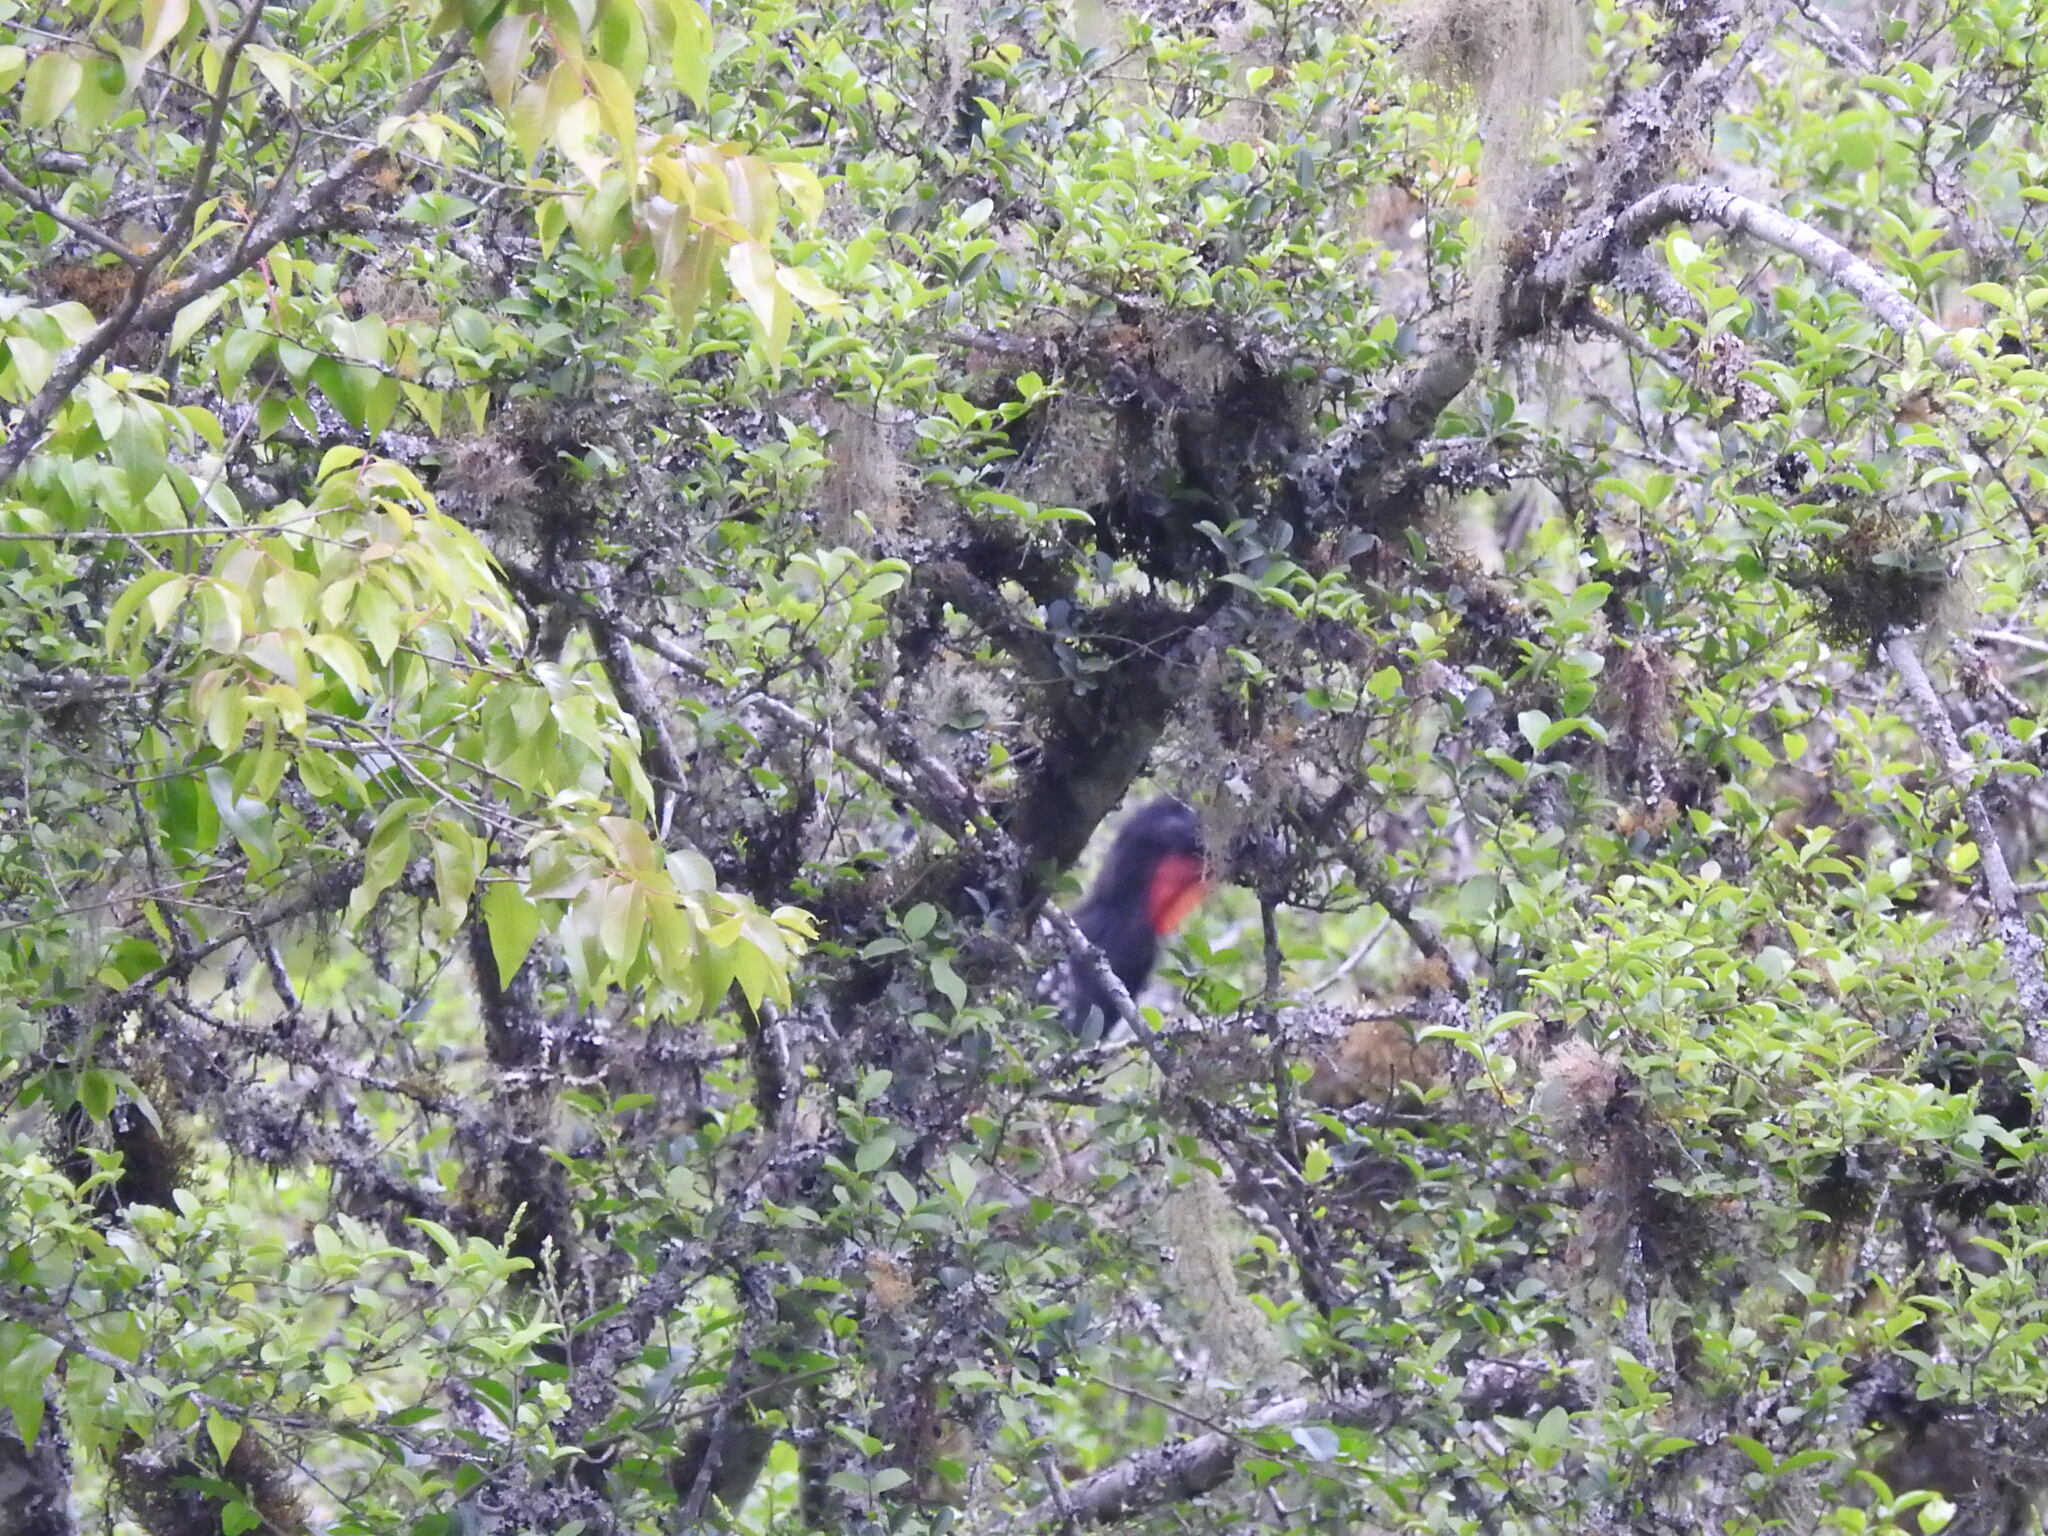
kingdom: Animalia
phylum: Chordata
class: Aves
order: Galliformes
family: Cracidae
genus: Penelope
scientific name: Penelope bridgesi
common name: Yungas guan
